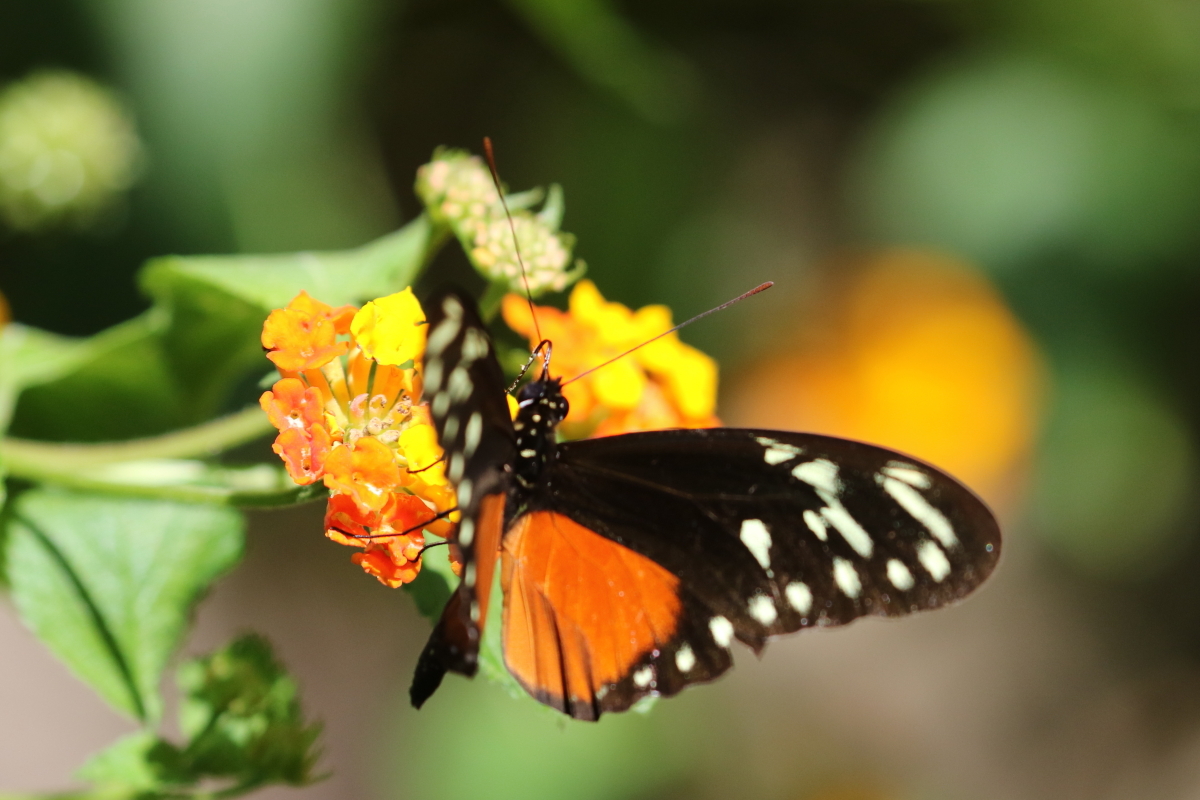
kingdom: Animalia
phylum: Arthropoda
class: Insecta
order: Lepidoptera
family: Nymphalidae
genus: Heliconius
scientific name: Heliconius hecalesia
